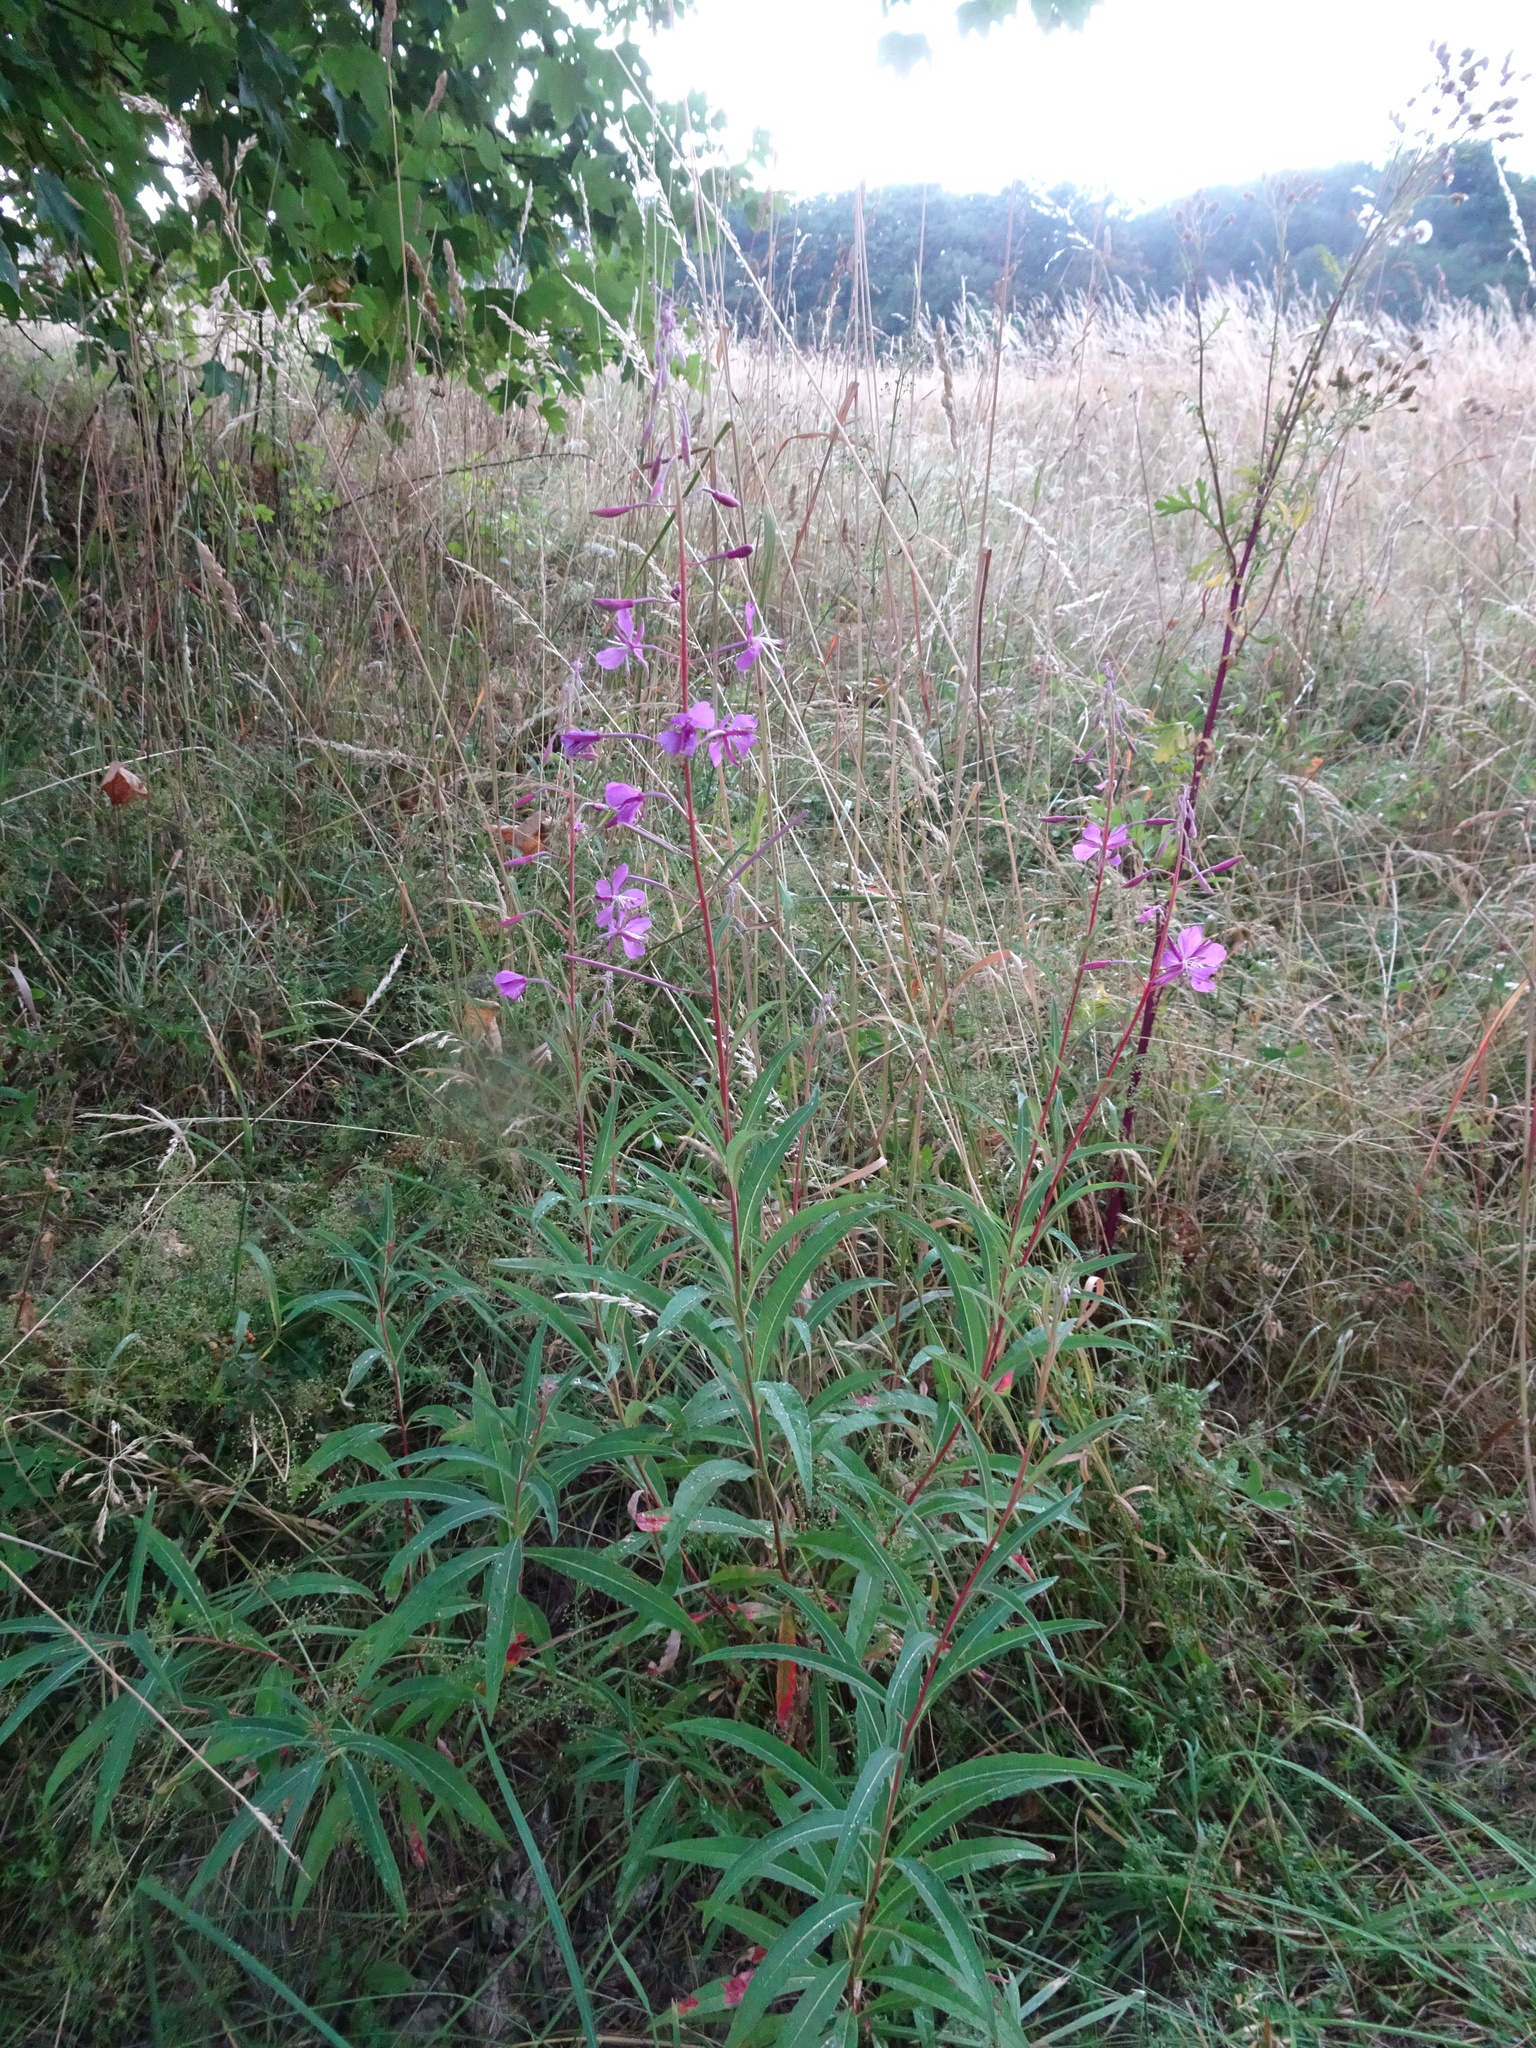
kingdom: Plantae
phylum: Tracheophyta
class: Magnoliopsida
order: Myrtales
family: Onagraceae
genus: Chamaenerion
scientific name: Chamaenerion angustifolium
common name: Fireweed
